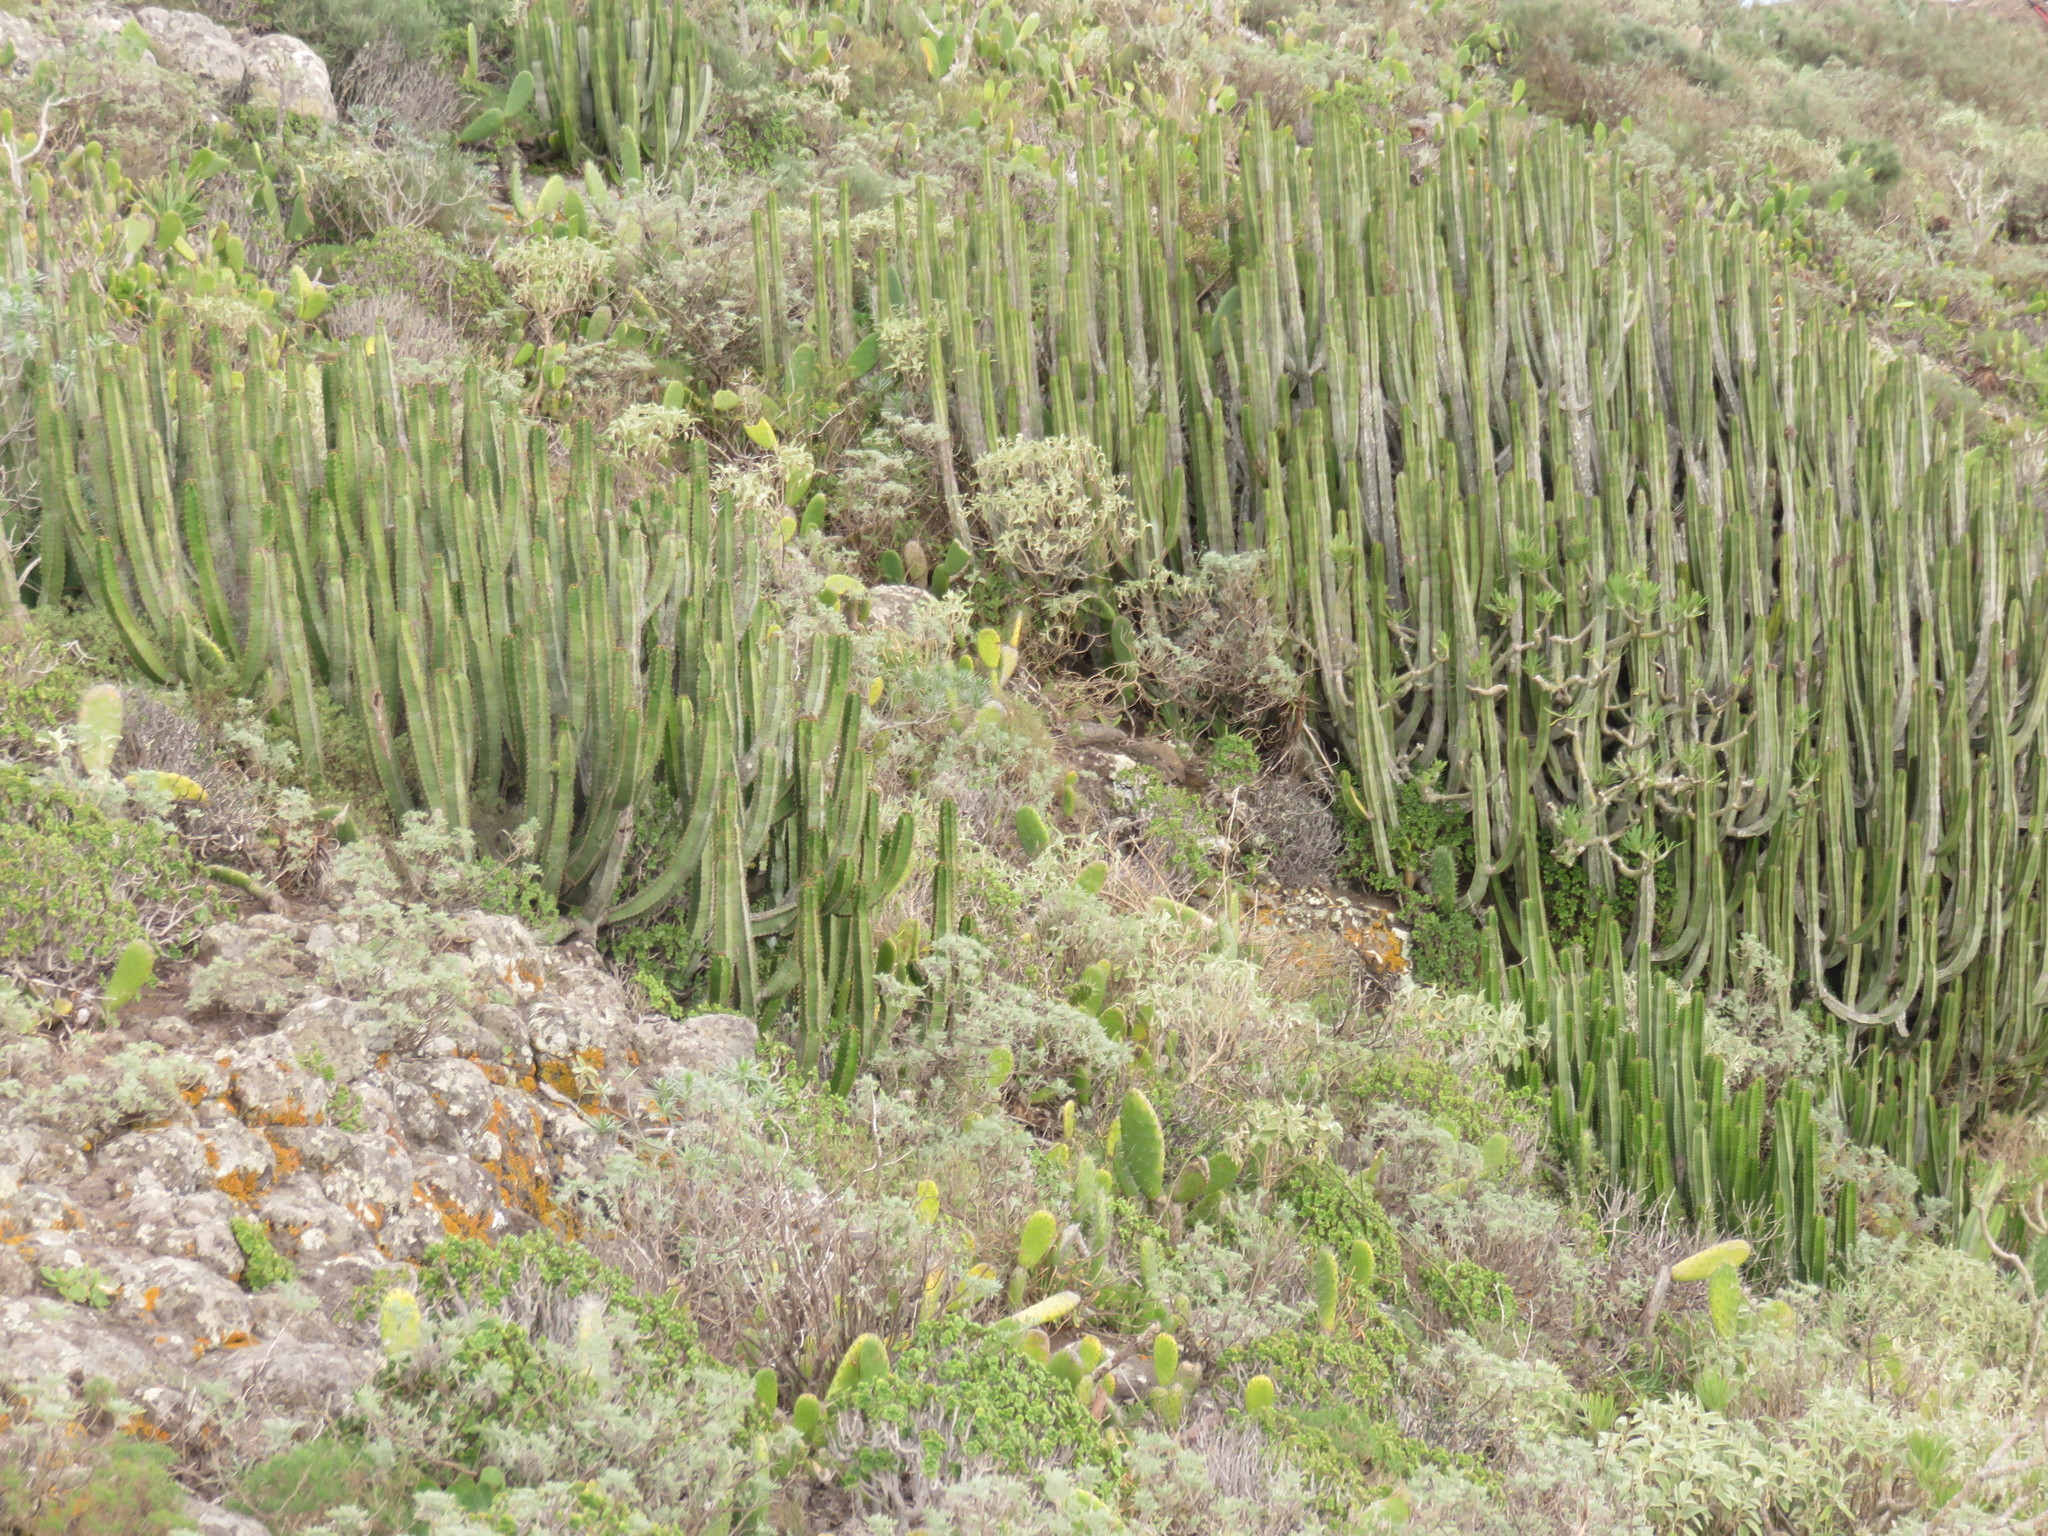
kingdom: Plantae
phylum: Tracheophyta
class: Magnoliopsida
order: Malpighiales
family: Euphorbiaceae
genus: Euphorbia
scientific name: Euphorbia canariensis
